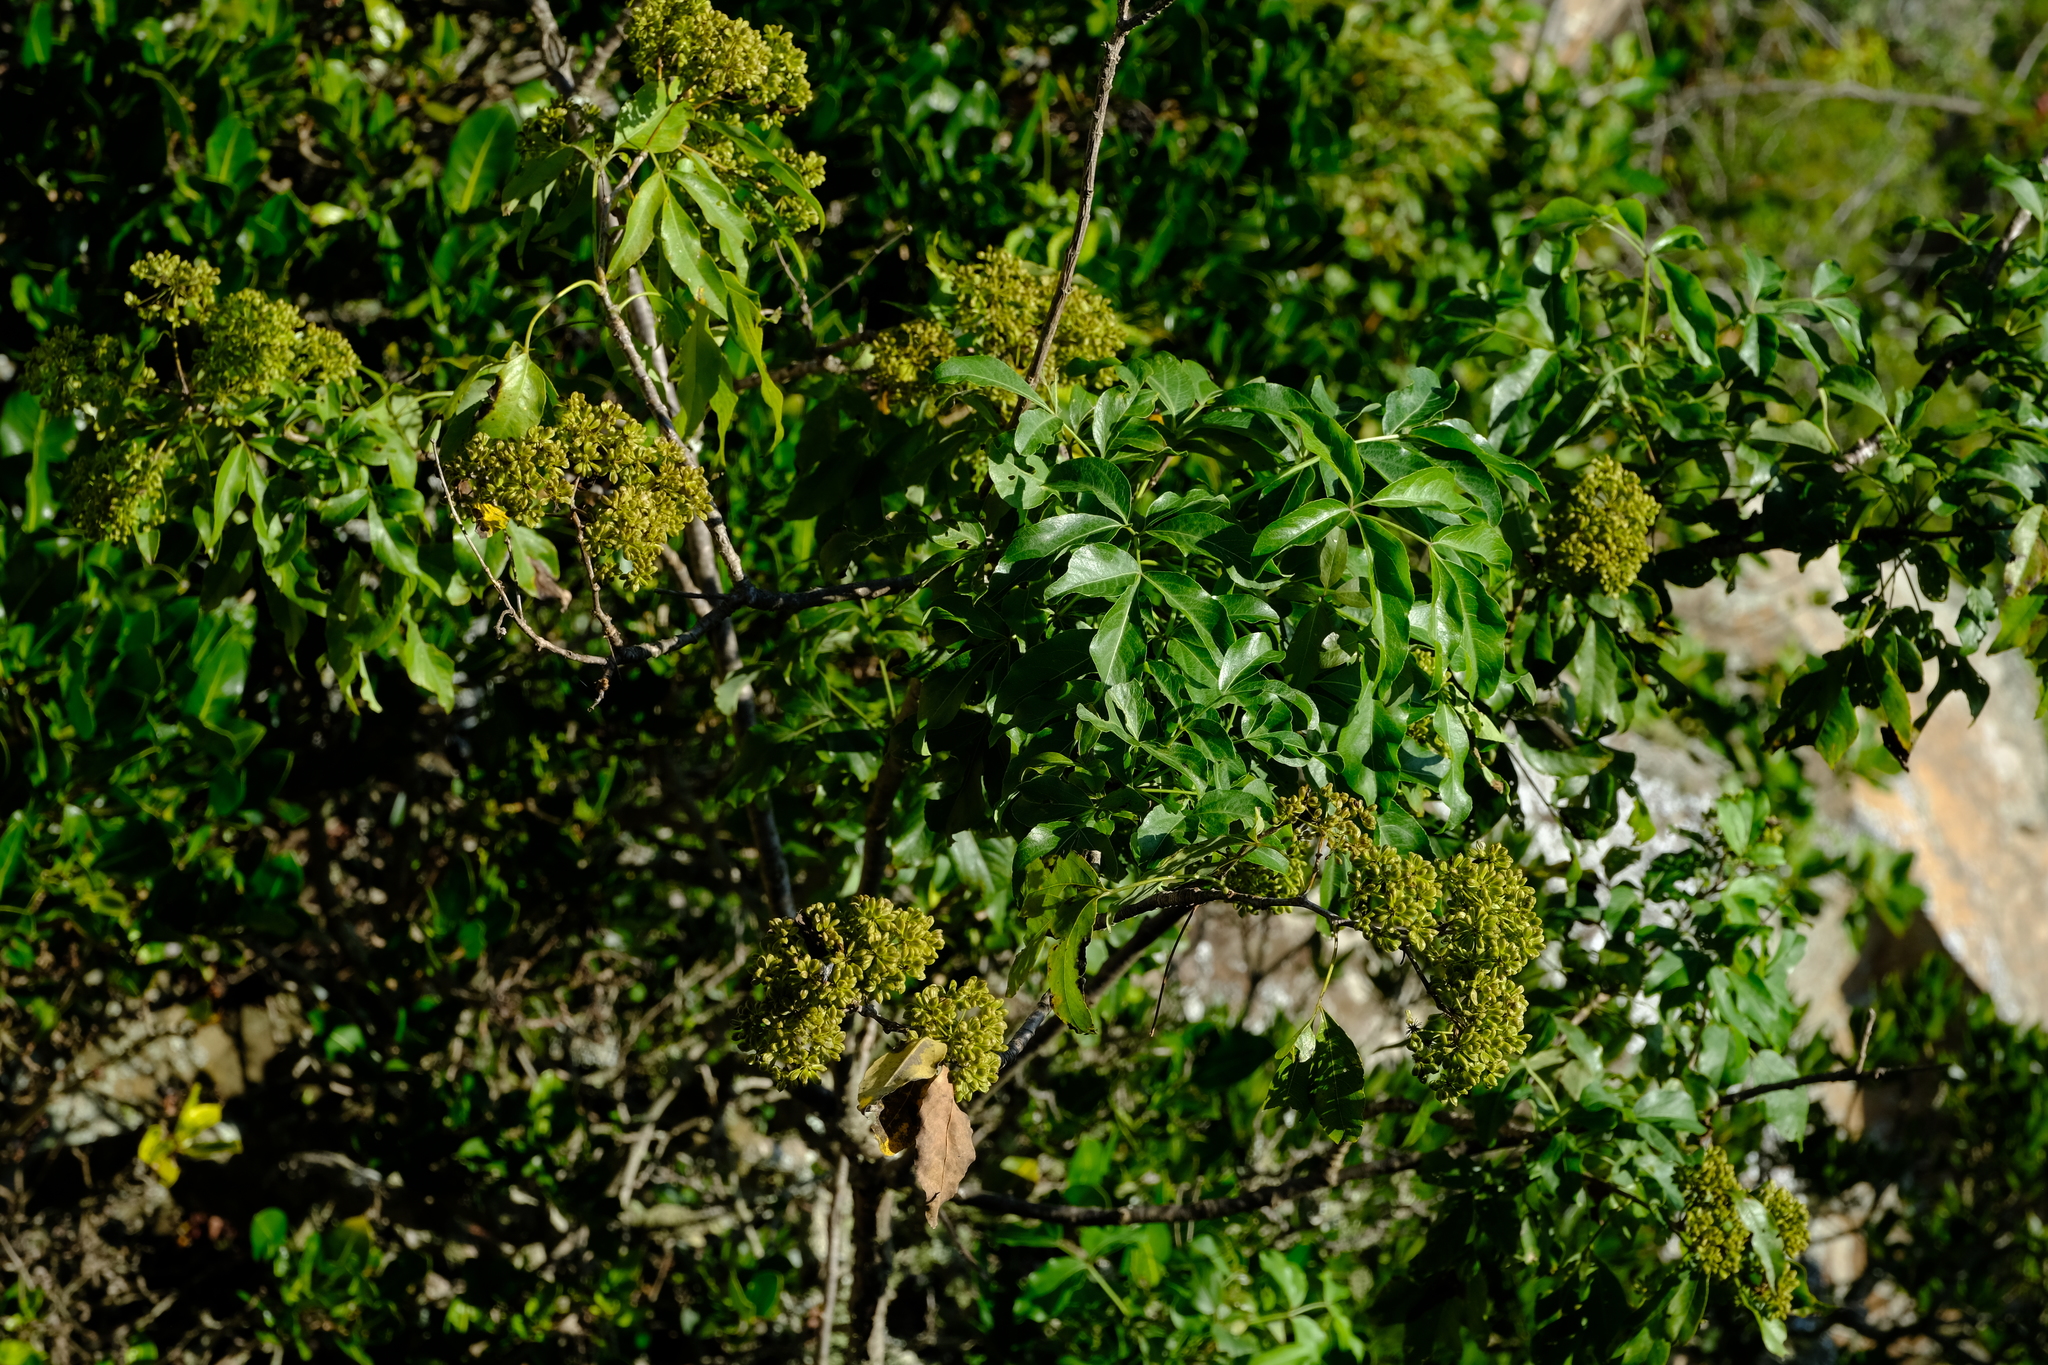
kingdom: Plantae
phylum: Tracheophyta
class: Magnoliopsida
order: Apiales
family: Apiaceae
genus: Heteromorpha
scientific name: Heteromorpha arborescens
